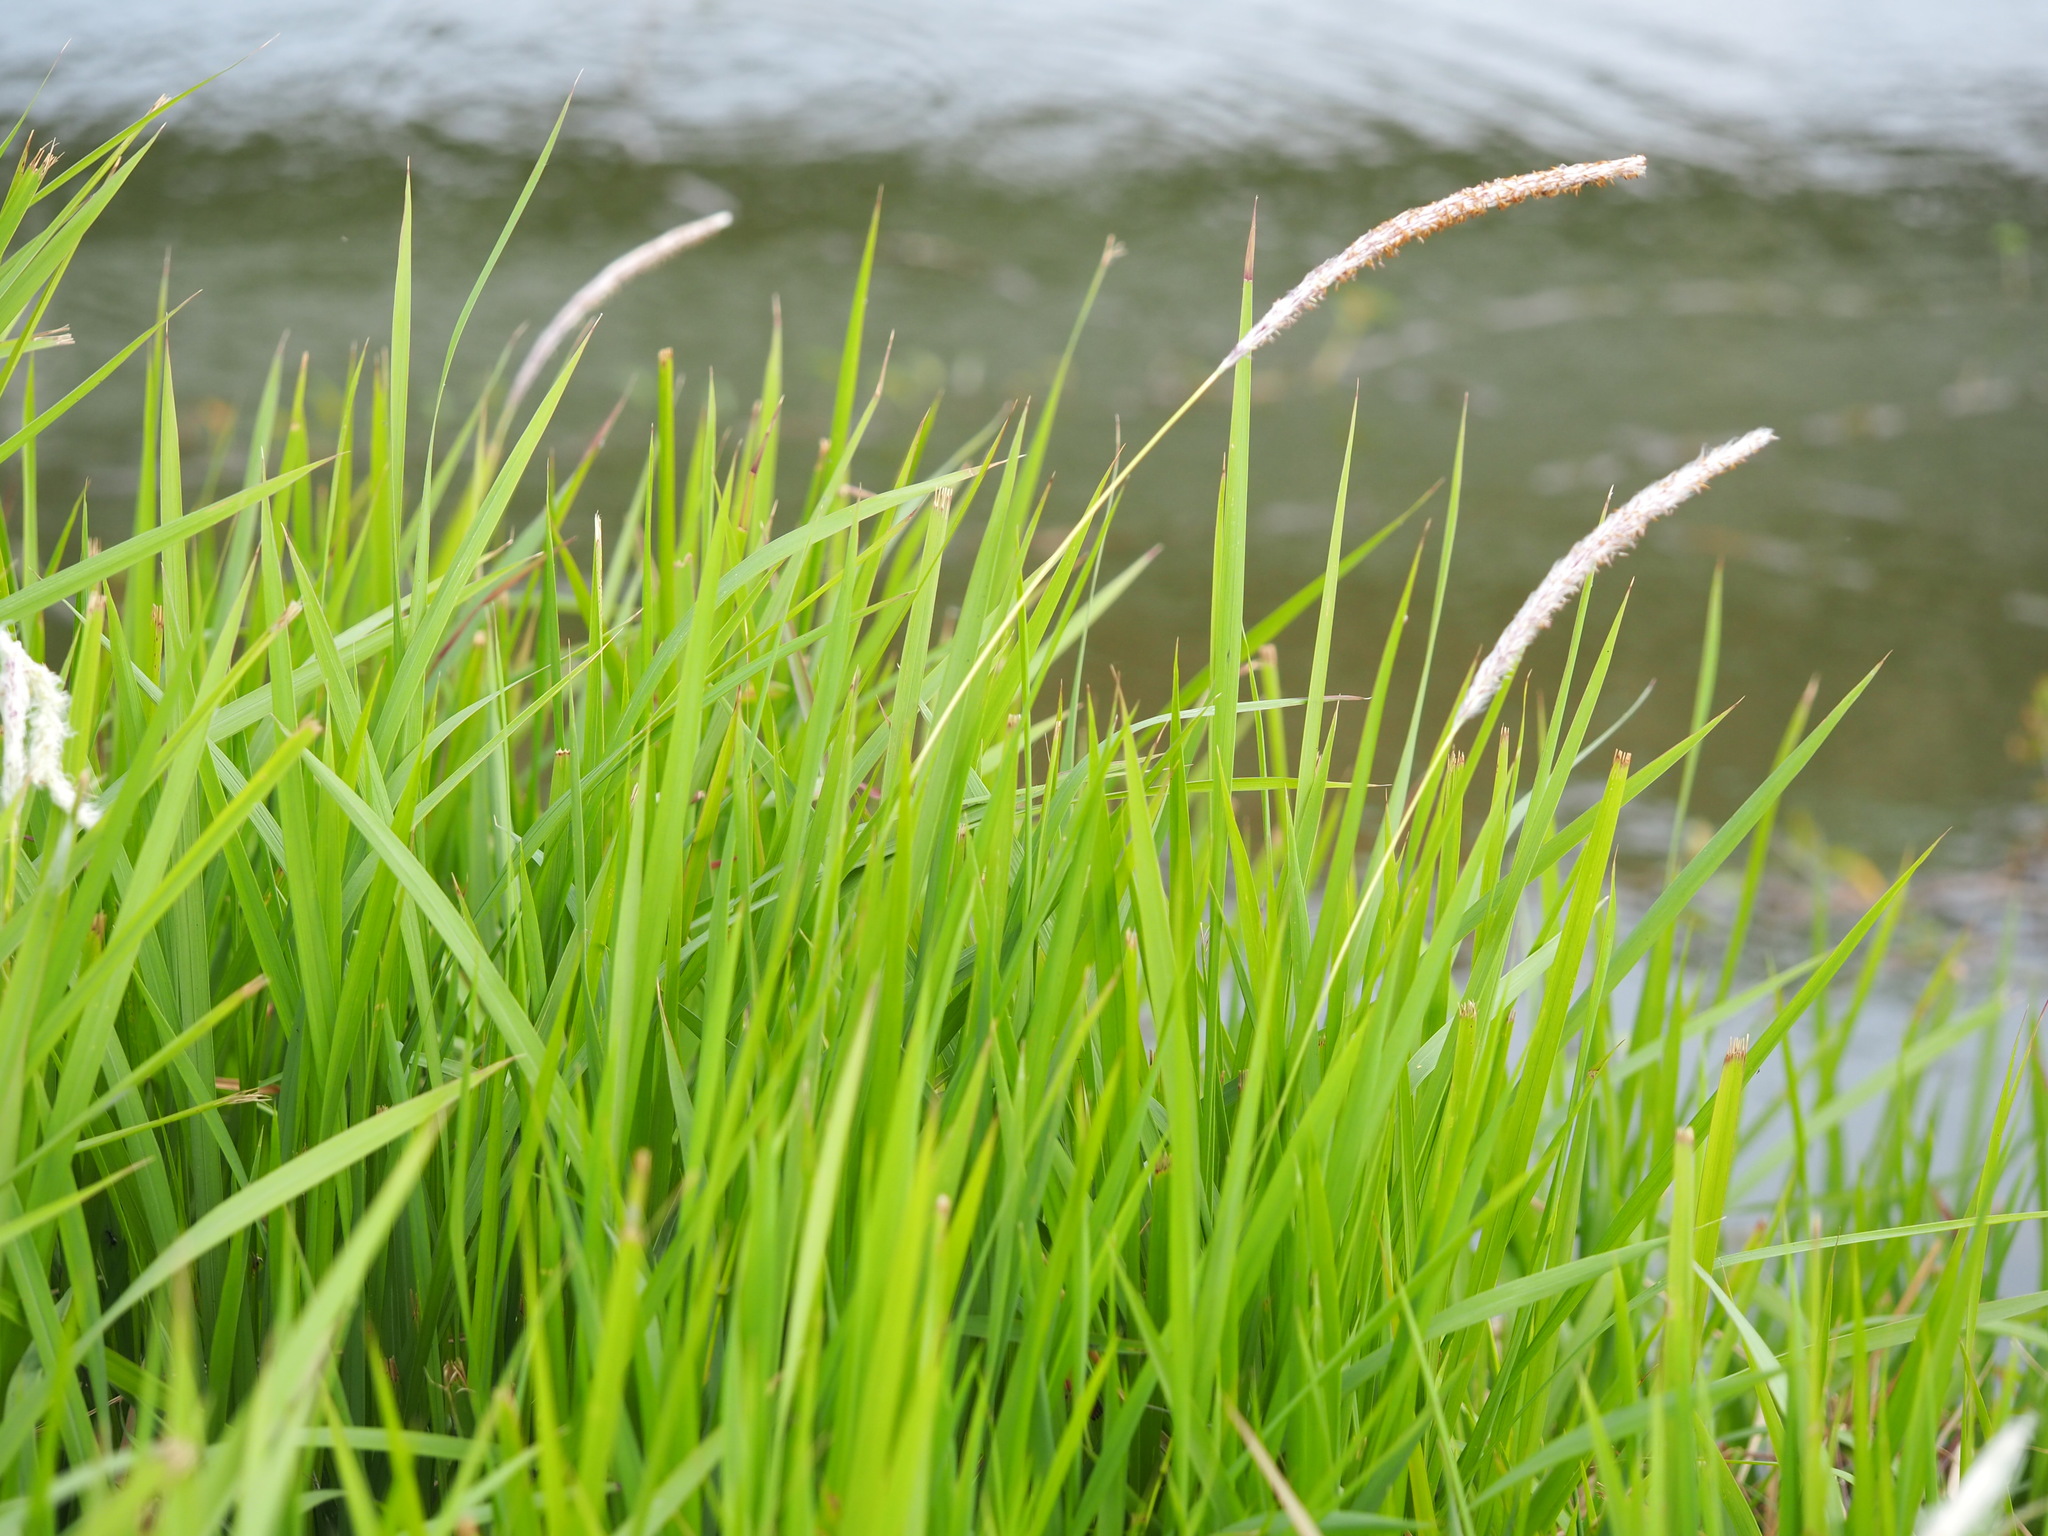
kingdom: Plantae
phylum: Tracheophyta
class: Liliopsida
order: Poales
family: Poaceae
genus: Imperata
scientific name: Imperata cylindrica
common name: Cogongrass
